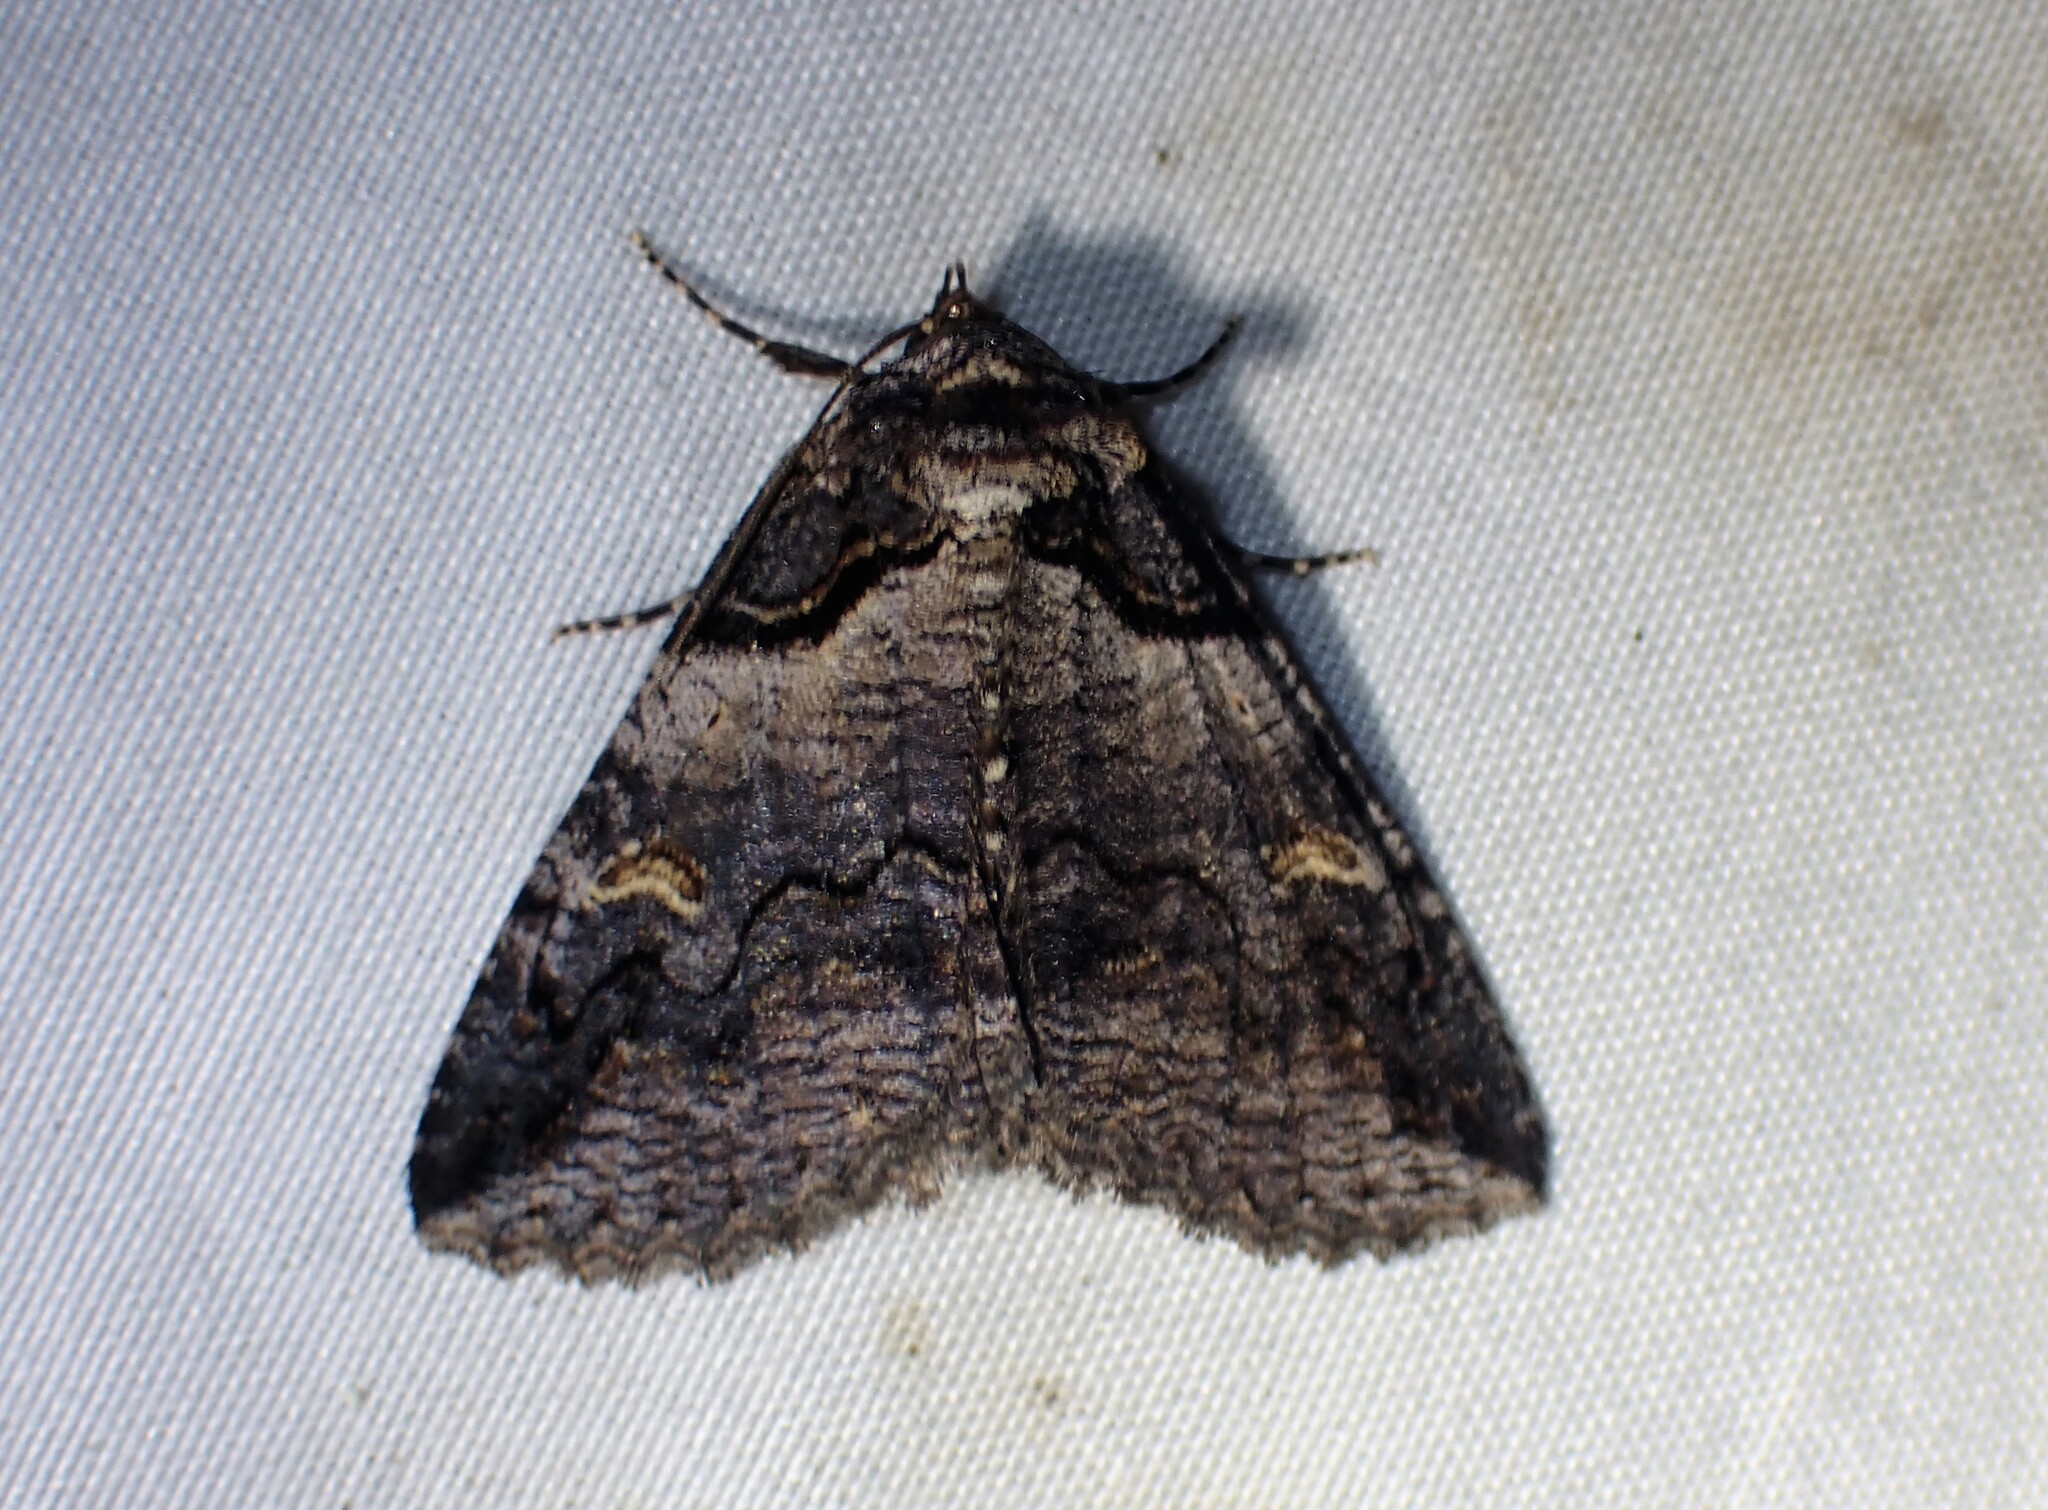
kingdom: Animalia
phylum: Arthropoda
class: Insecta
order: Lepidoptera
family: Erebidae
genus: Zale
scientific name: Zale intenta
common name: Intent zale moth
